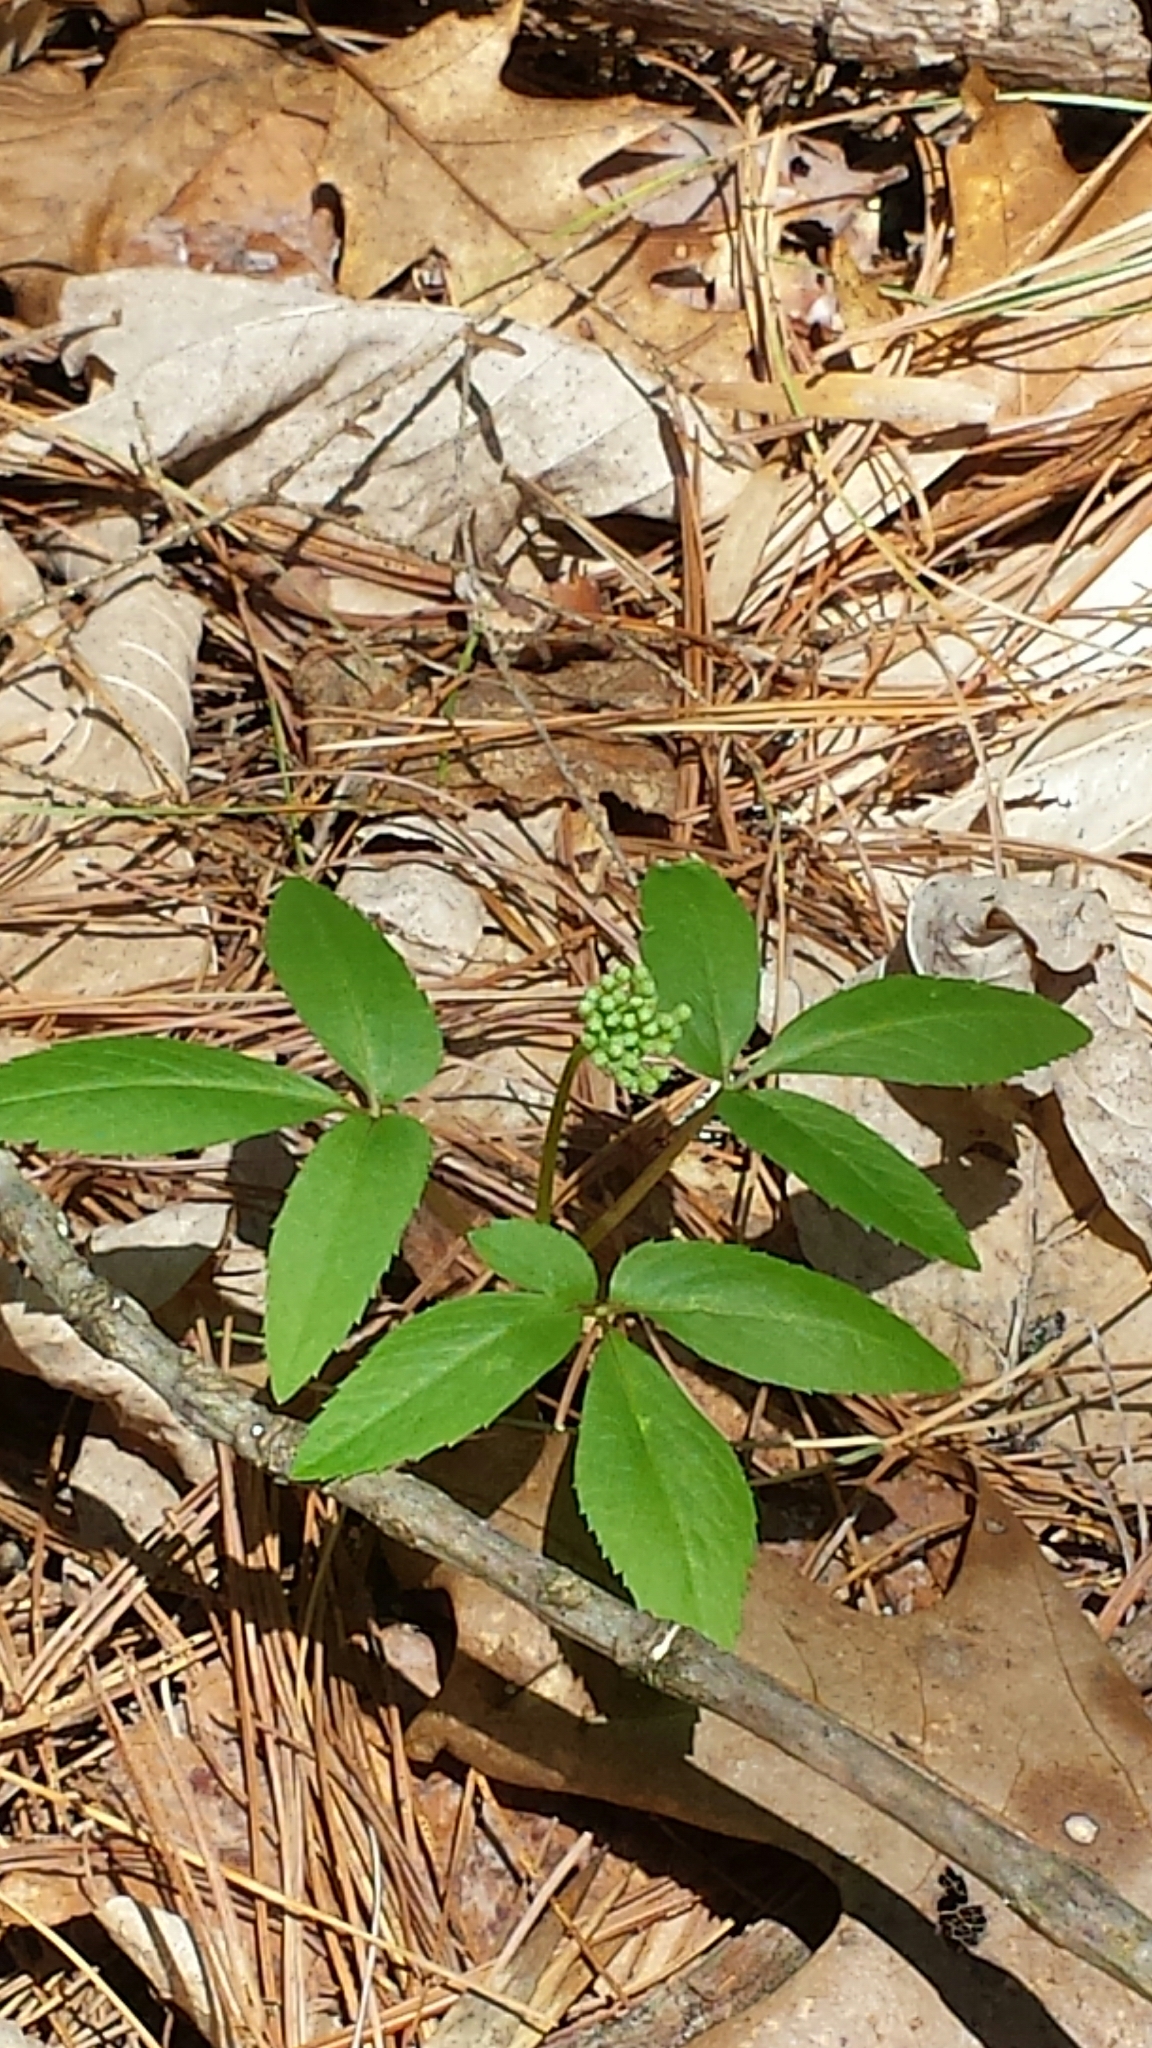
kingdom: Plantae
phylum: Tracheophyta
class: Magnoliopsida
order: Apiales
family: Araliaceae
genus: Panax
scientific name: Panax trifolius
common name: Dwarf ginseng
